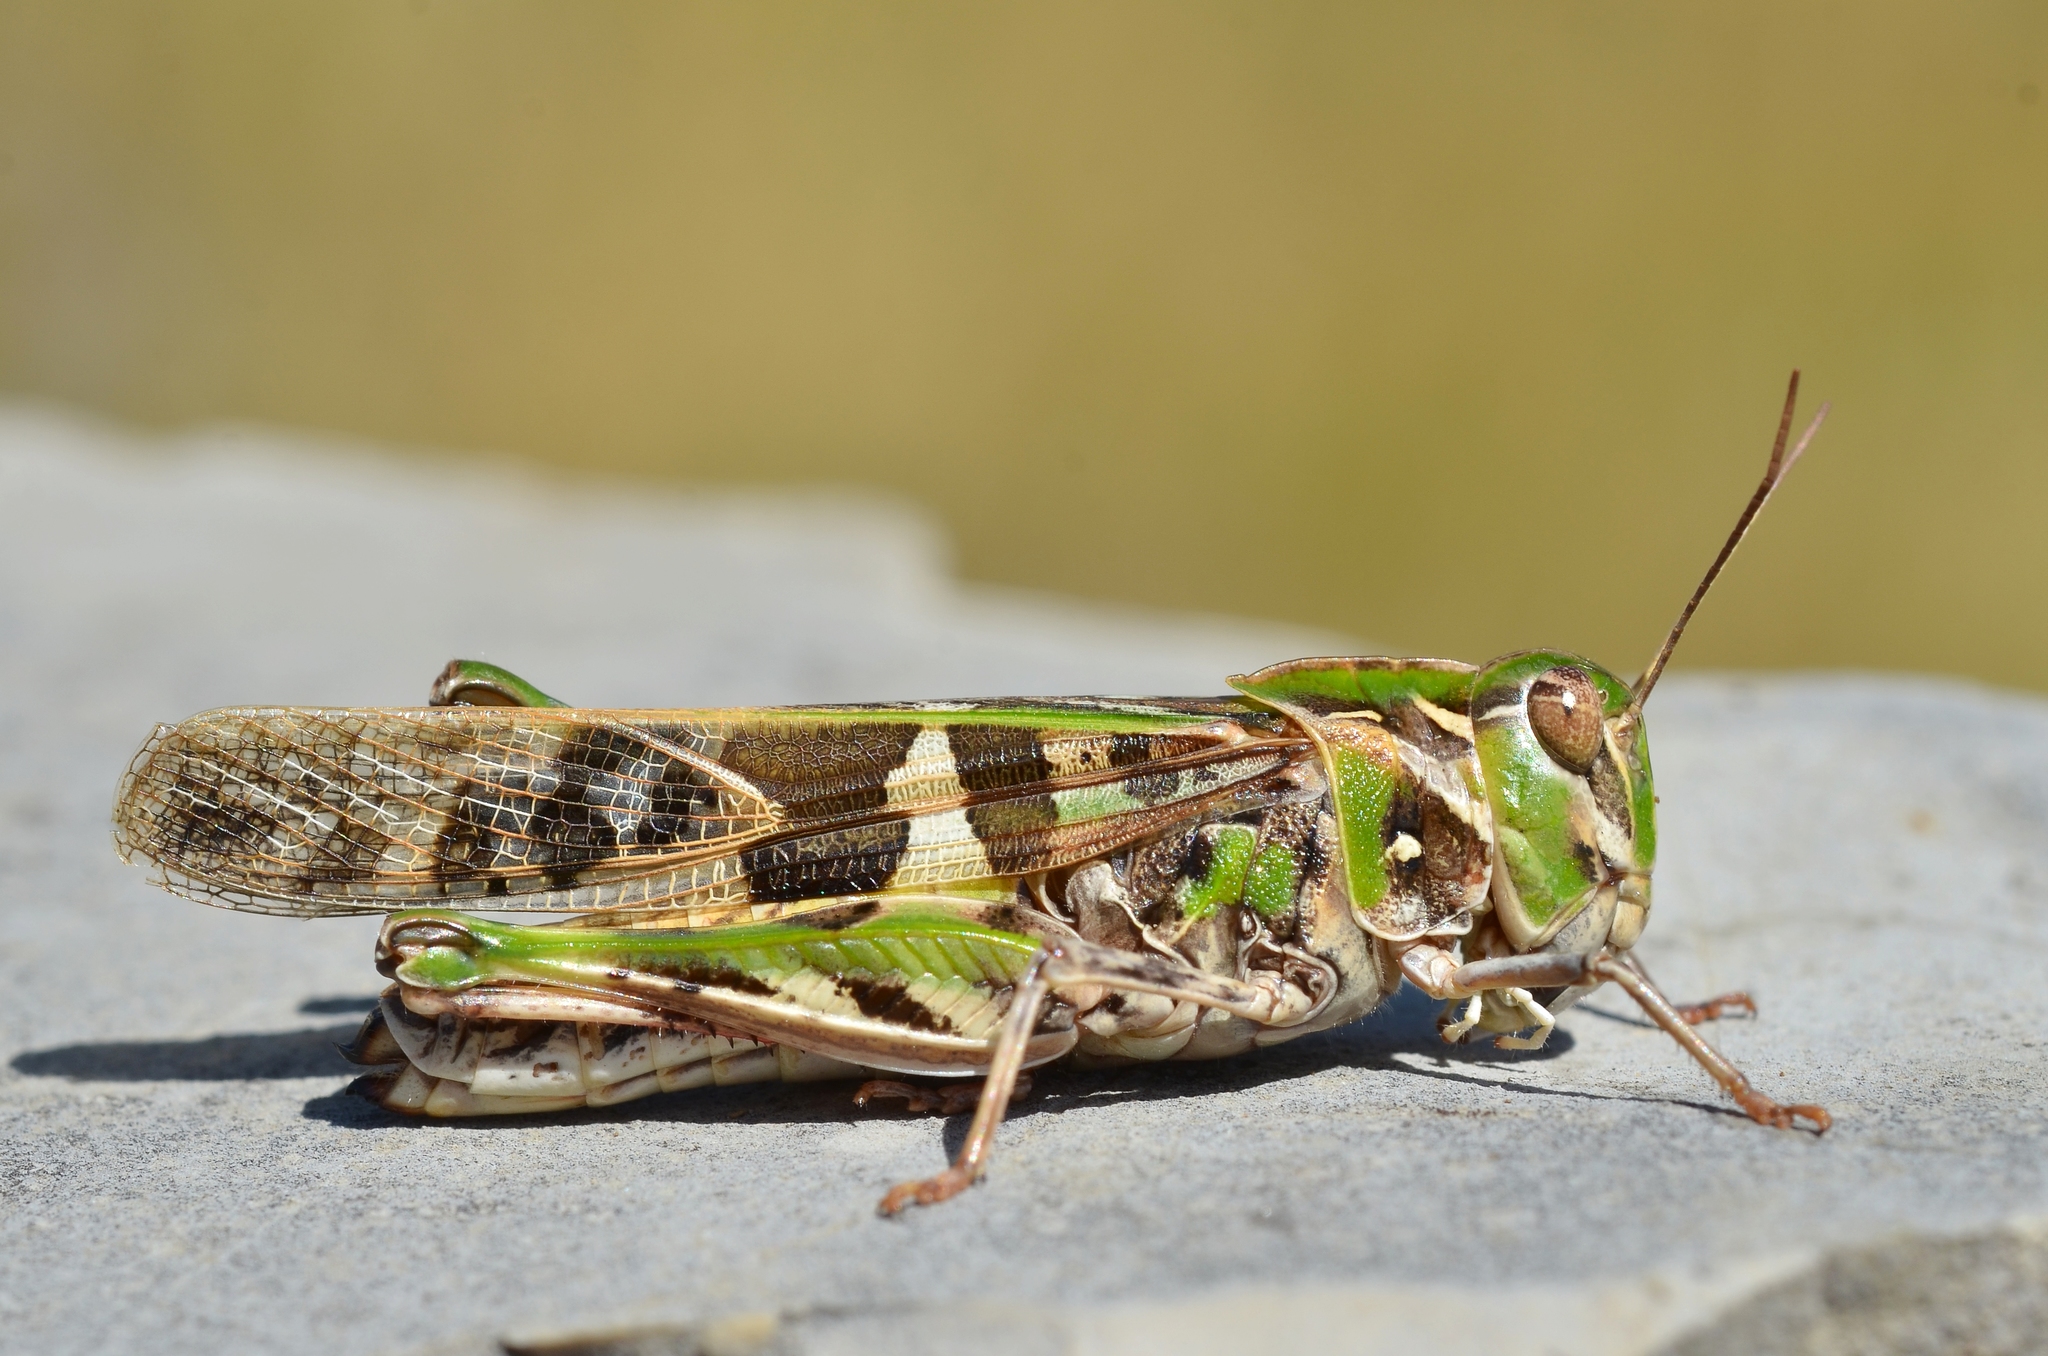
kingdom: Animalia
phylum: Arthropoda
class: Insecta
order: Orthoptera
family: Acrididae
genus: Oedaleus
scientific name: Oedaleus decorus
